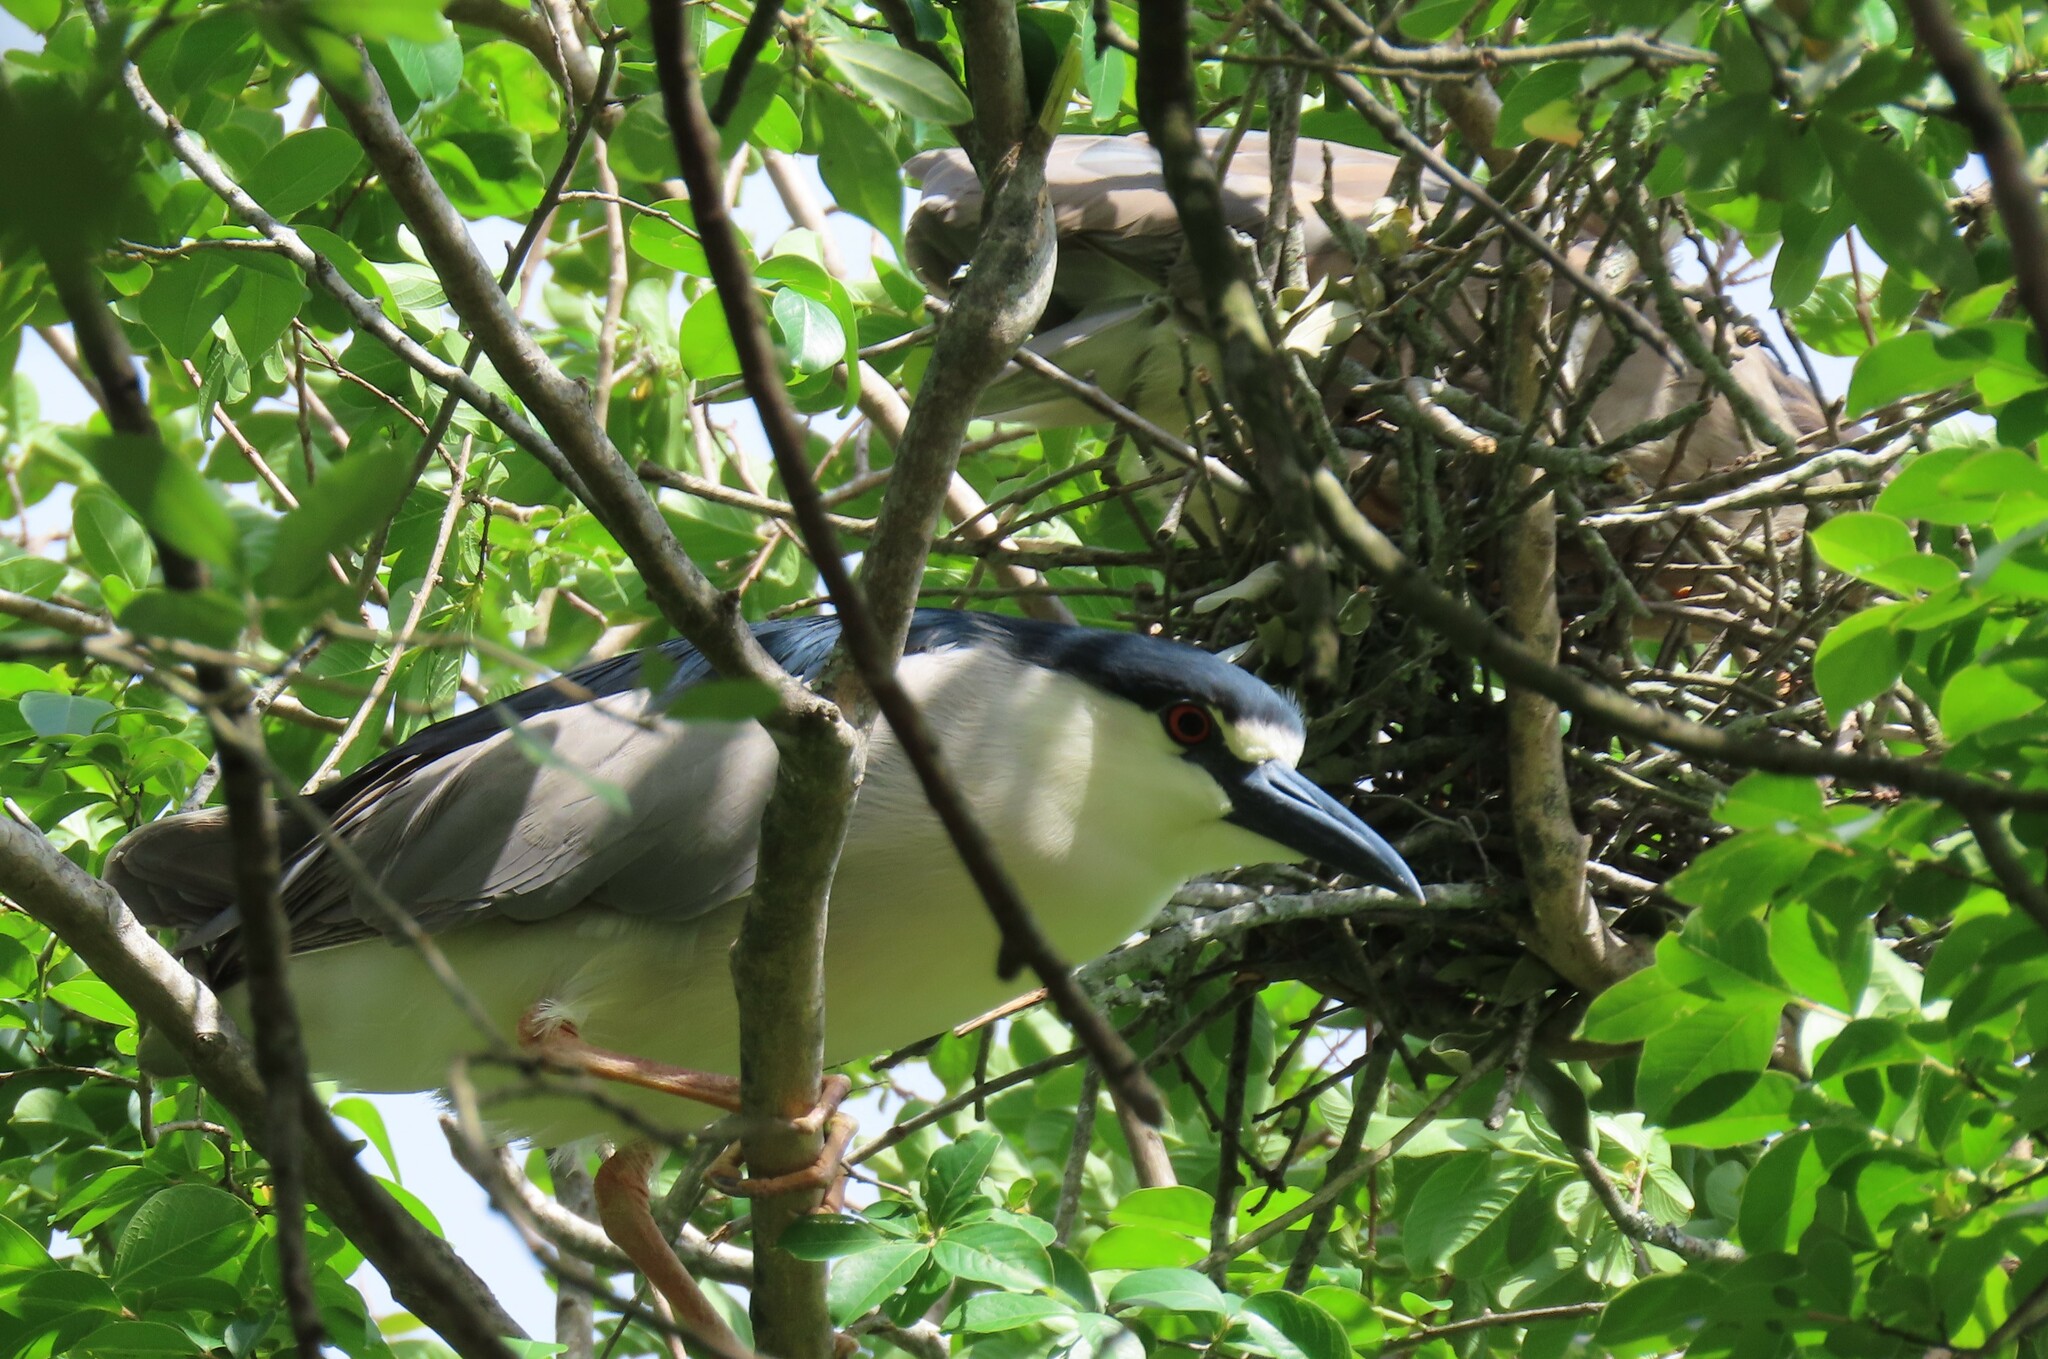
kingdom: Animalia
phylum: Chordata
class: Aves
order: Pelecaniformes
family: Ardeidae
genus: Nycticorax
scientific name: Nycticorax nycticorax
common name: Black-crowned night heron
